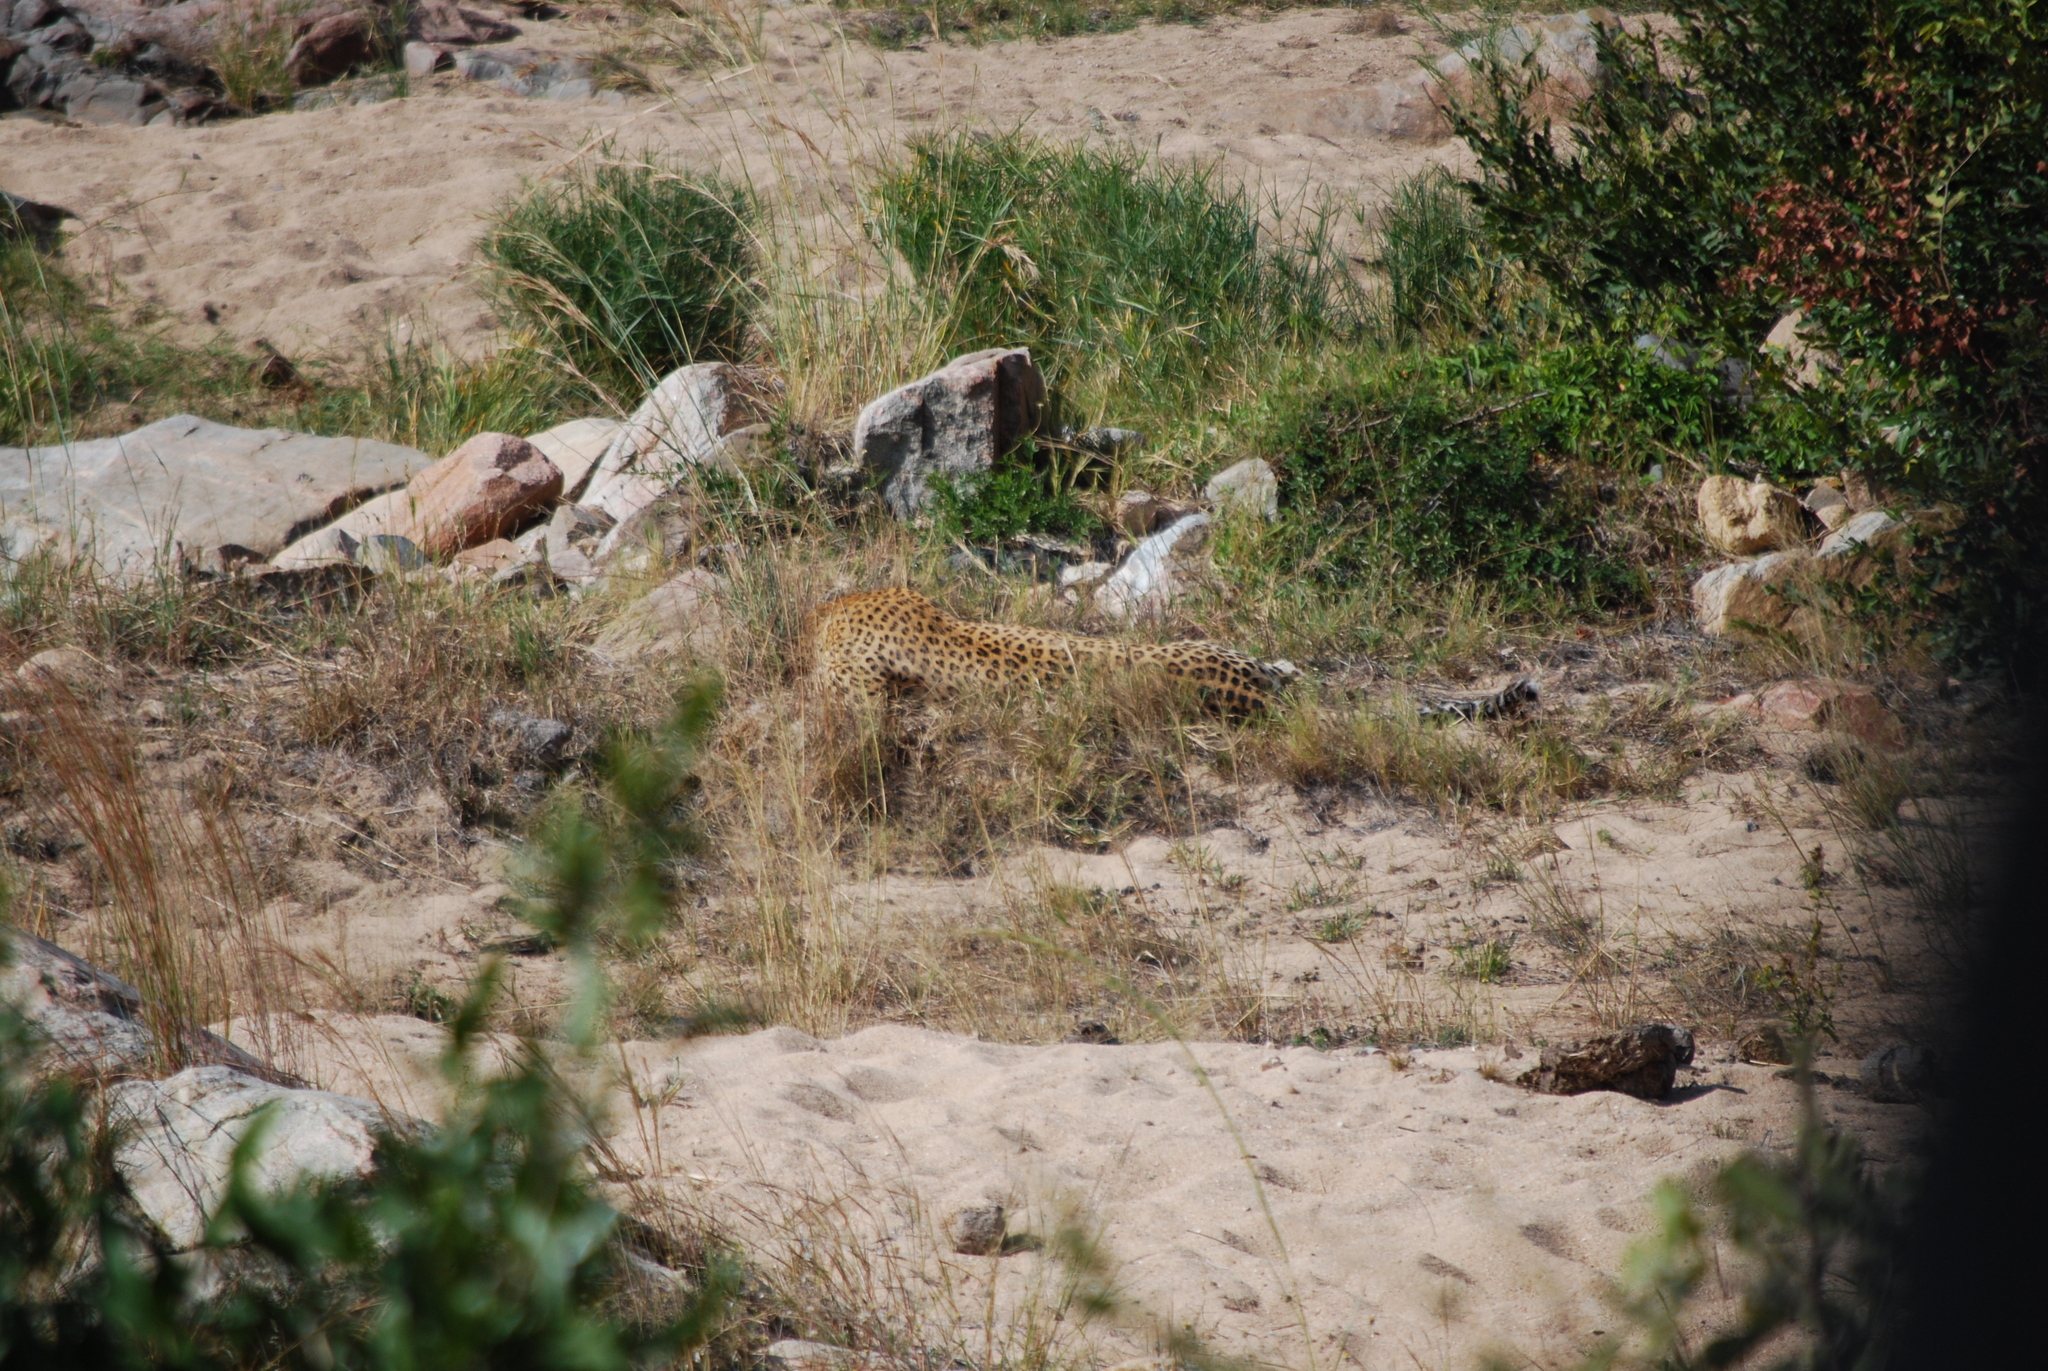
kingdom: Animalia
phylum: Chordata
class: Mammalia
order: Carnivora
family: Felidae
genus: Panthera
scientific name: Panthera pardus
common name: Leopard
